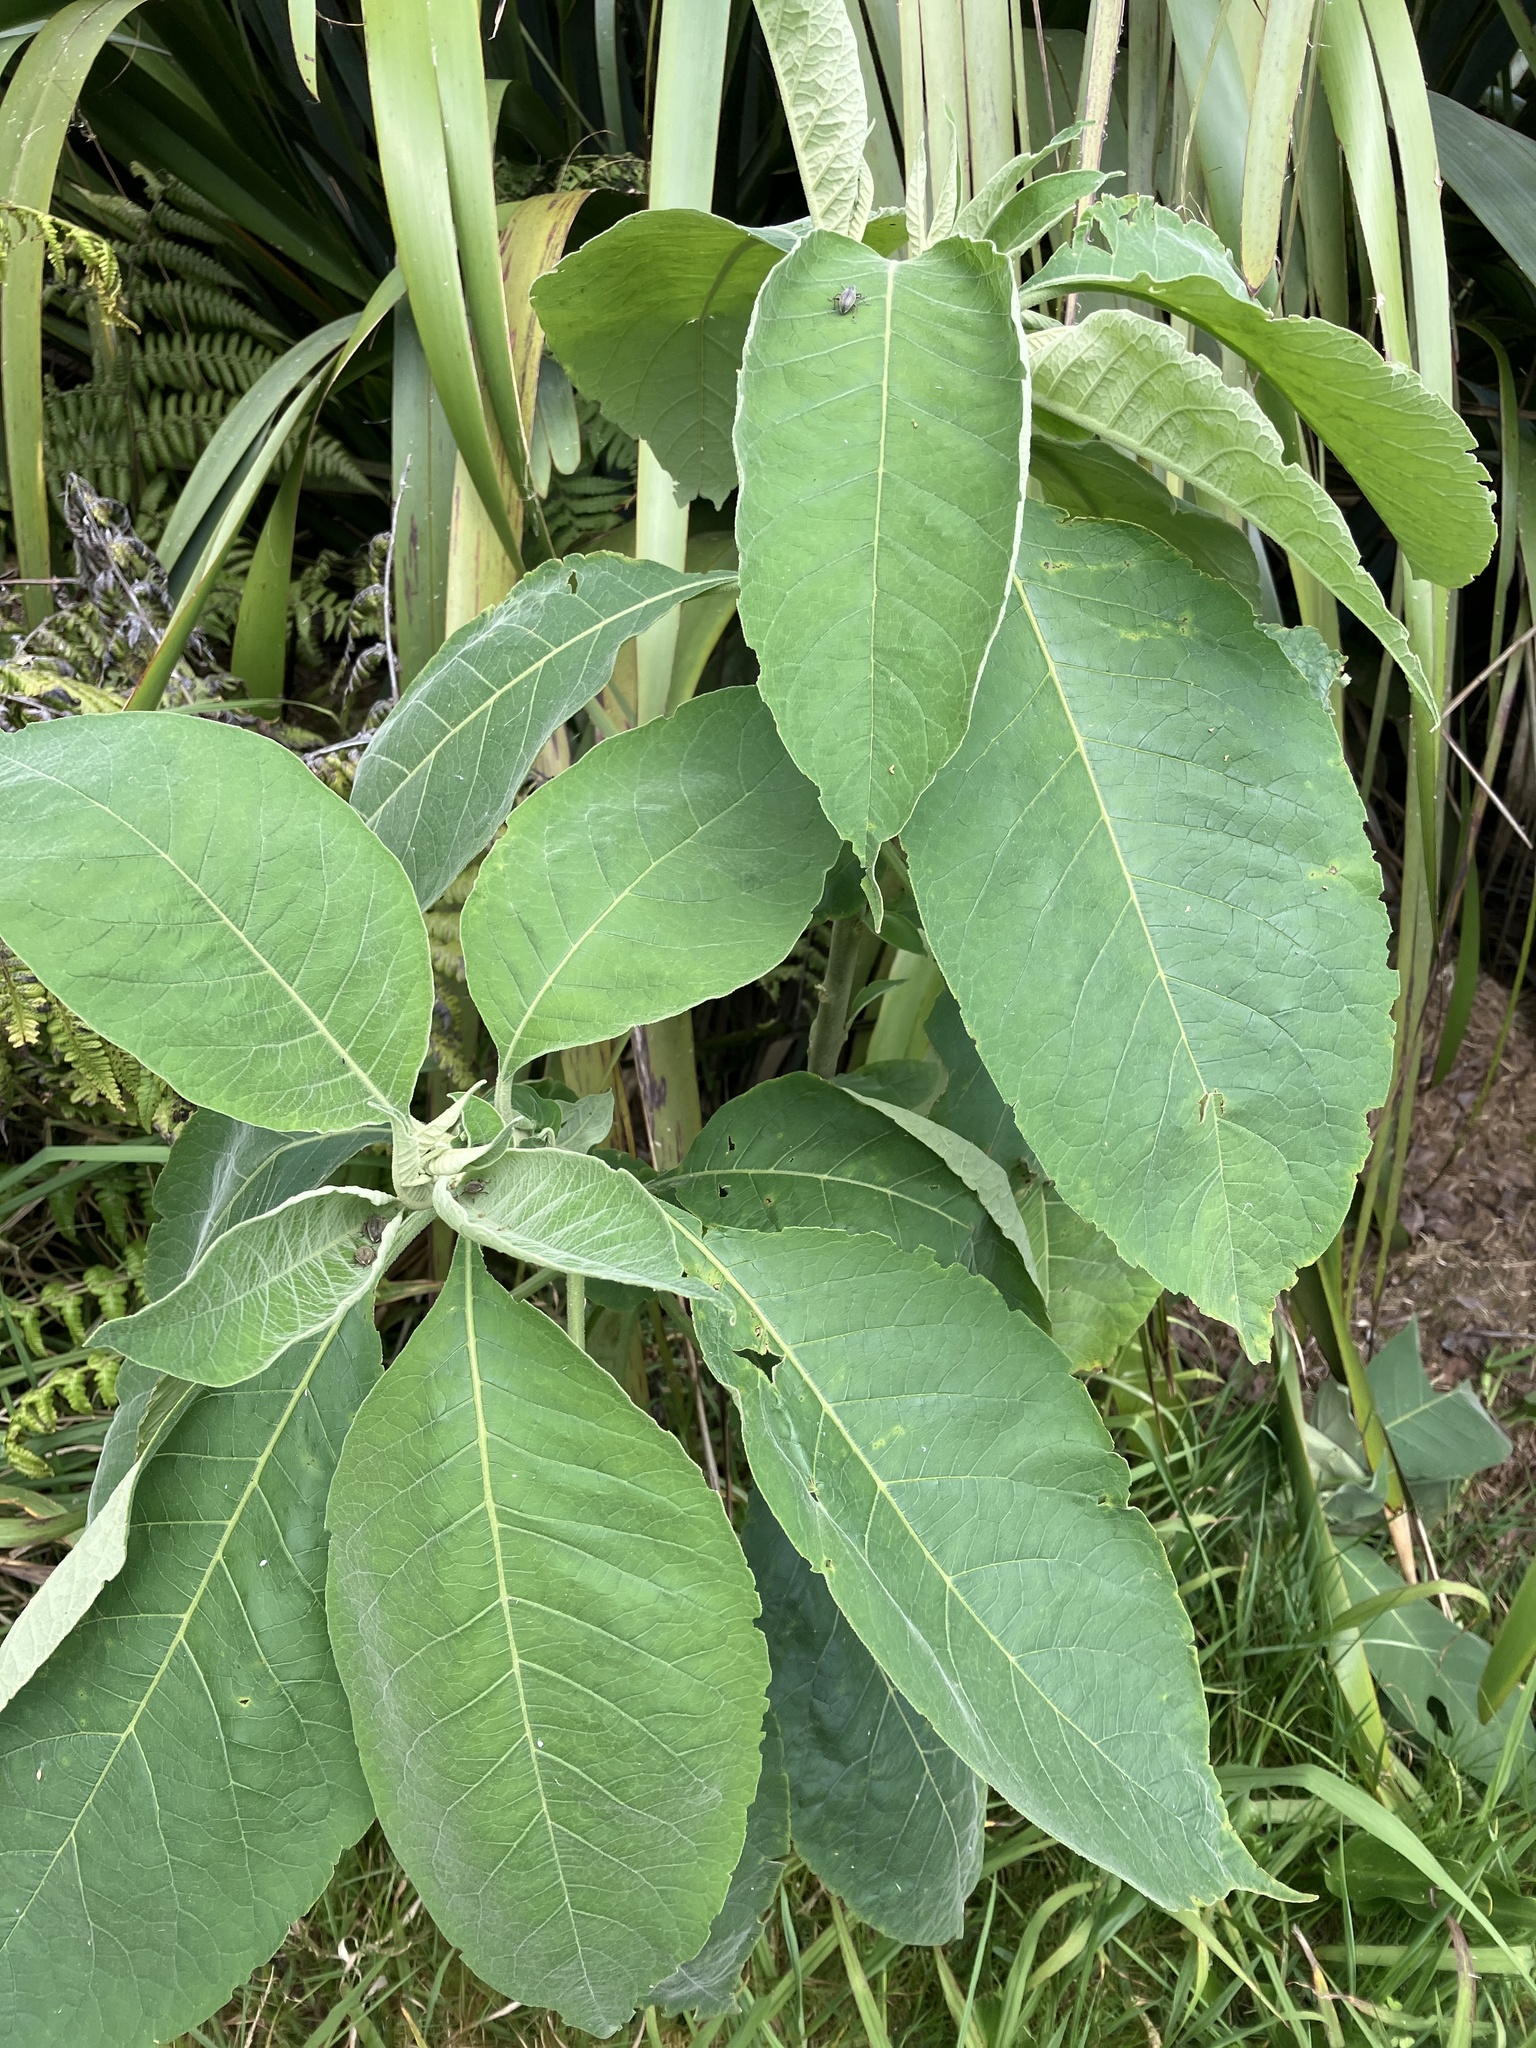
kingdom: Plantae
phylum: Tracheophyta
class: Magnoliopsida
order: Solanales
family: Solanaceae
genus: Solanum
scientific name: Solanum mauritianum
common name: Earleaf nightshade
